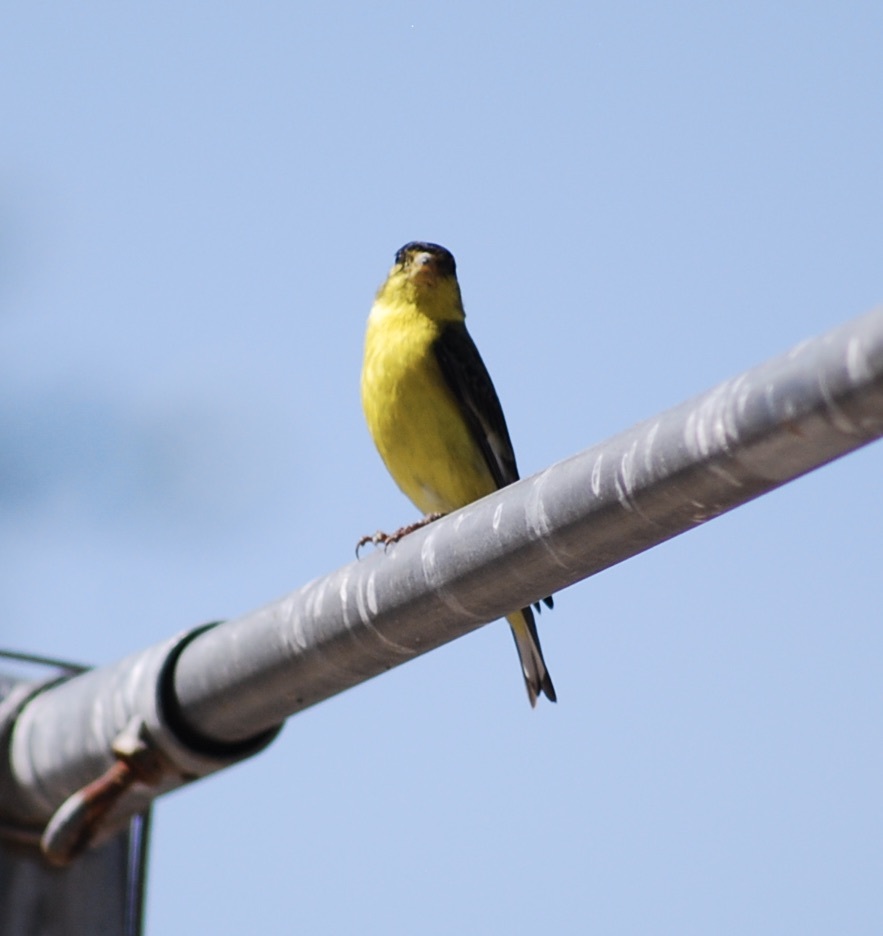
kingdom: Animalia
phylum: Chordata
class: Aves
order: Passeriformes
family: Fringillidae
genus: Spinus
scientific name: Spinus psaltria
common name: Lesser goldfinch
